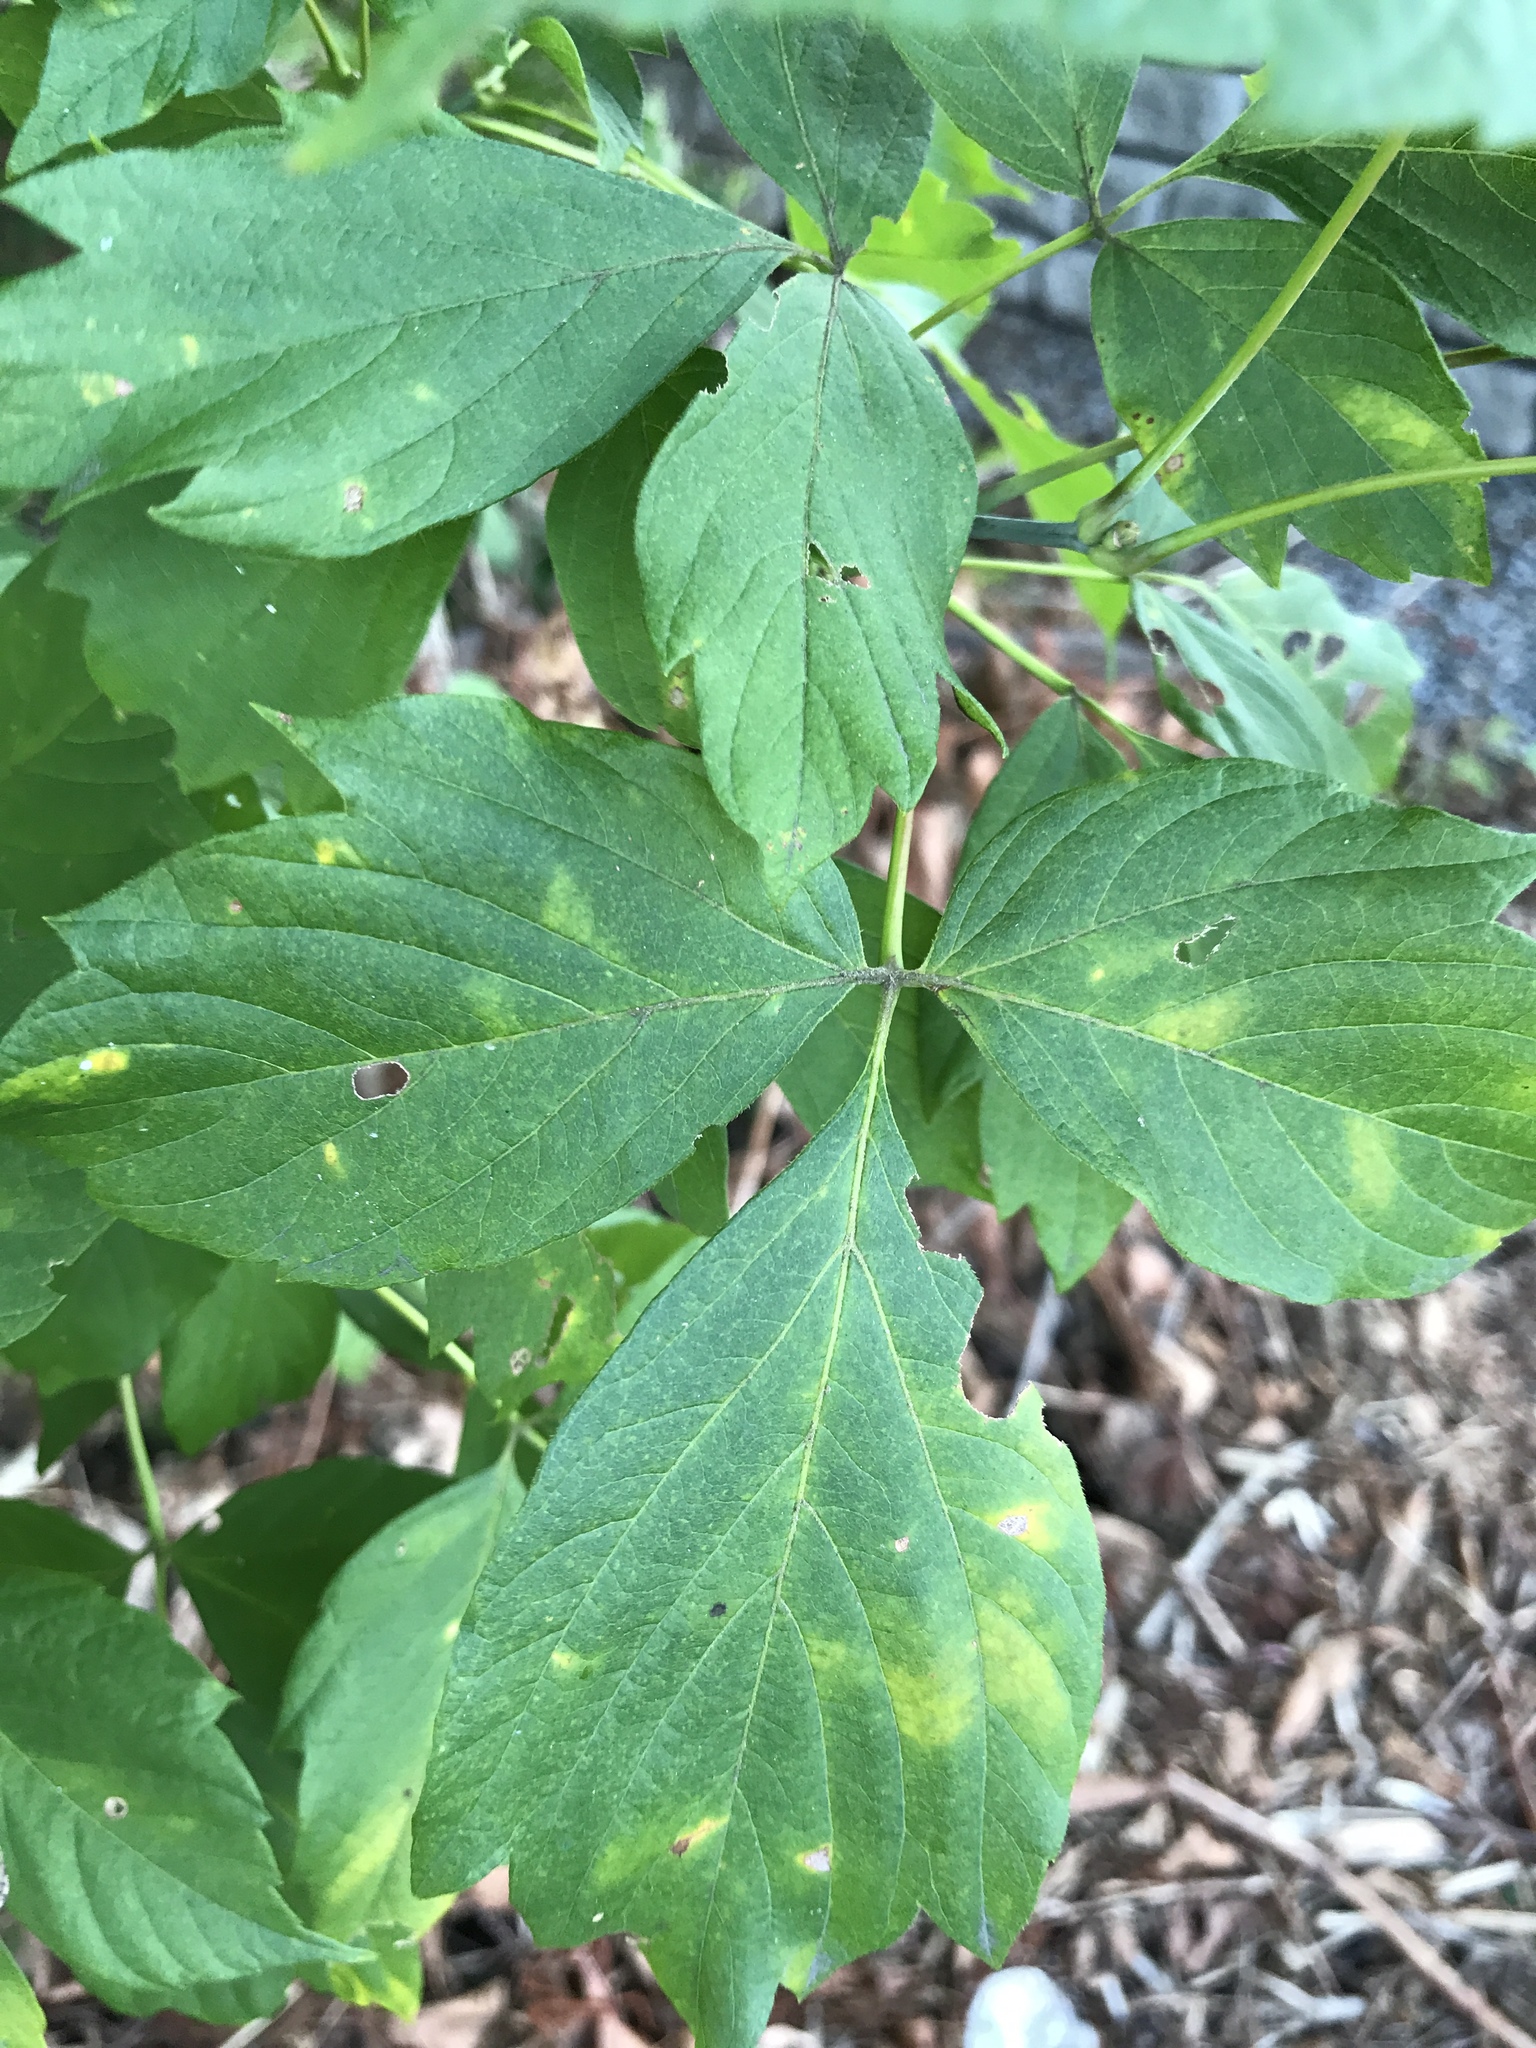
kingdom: Plantae
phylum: Tracheophyta
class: Magnoliopsida
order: Sapindales
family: Sapindaceae
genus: Acer
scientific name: Acer negundo
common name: Ashleaf maple
